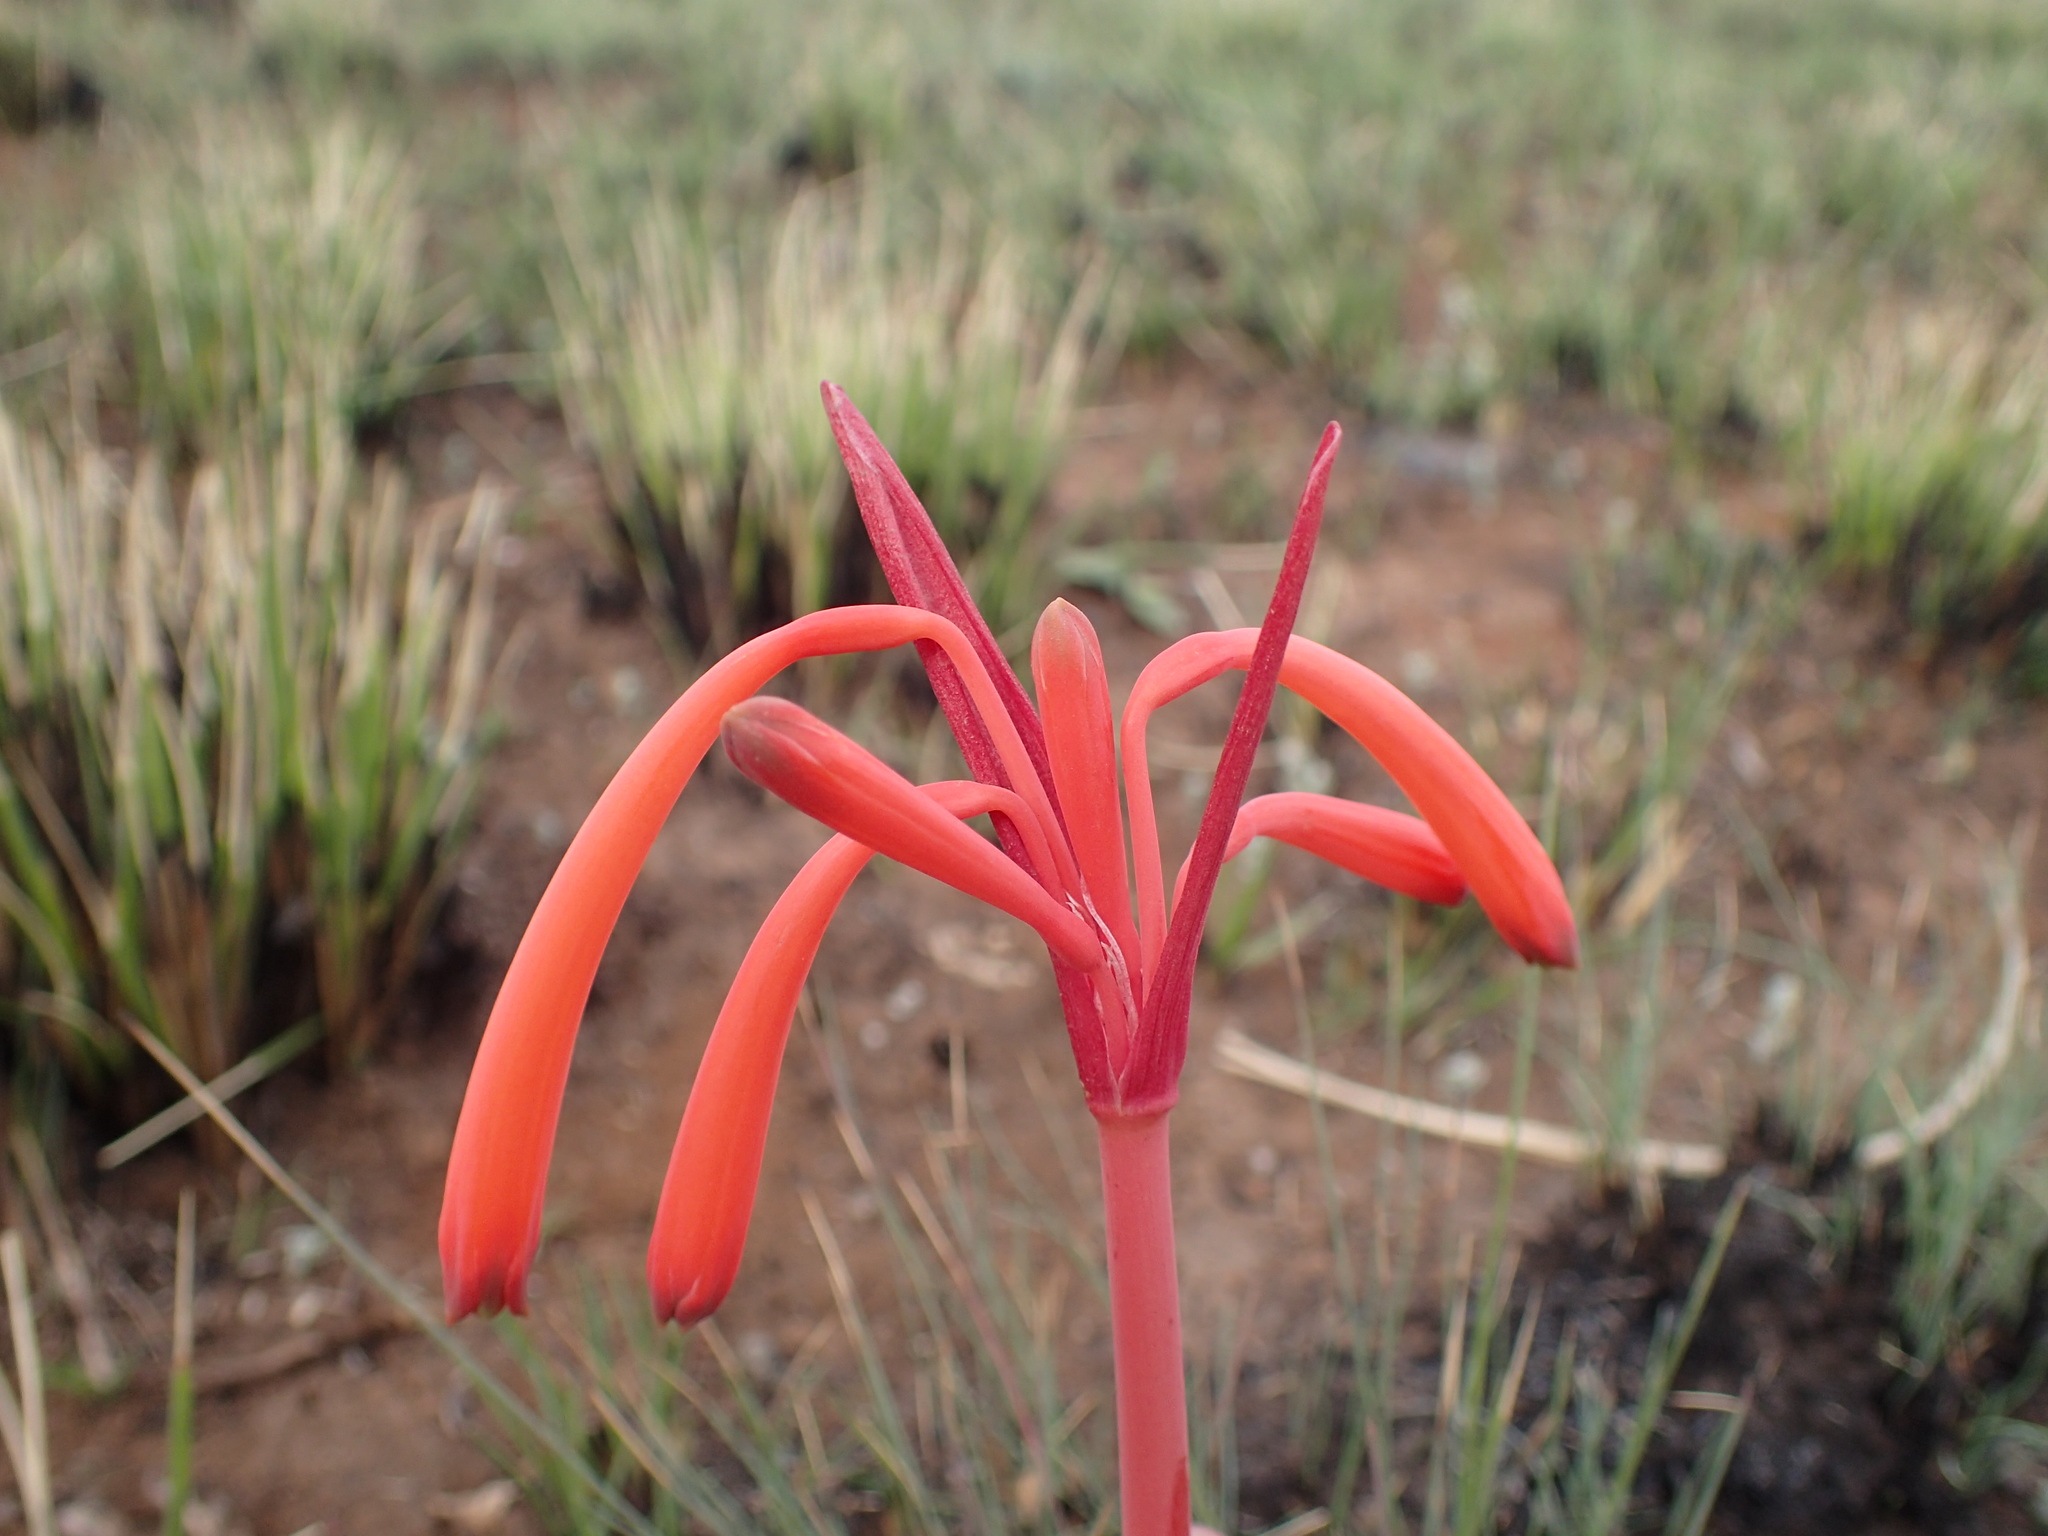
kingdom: Plantae
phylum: Tracheophyta
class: Liliopsida
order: Asparagales
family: Amaryllidaceae
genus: Cyrtanthus
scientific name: Cyrtanthus tuckii
